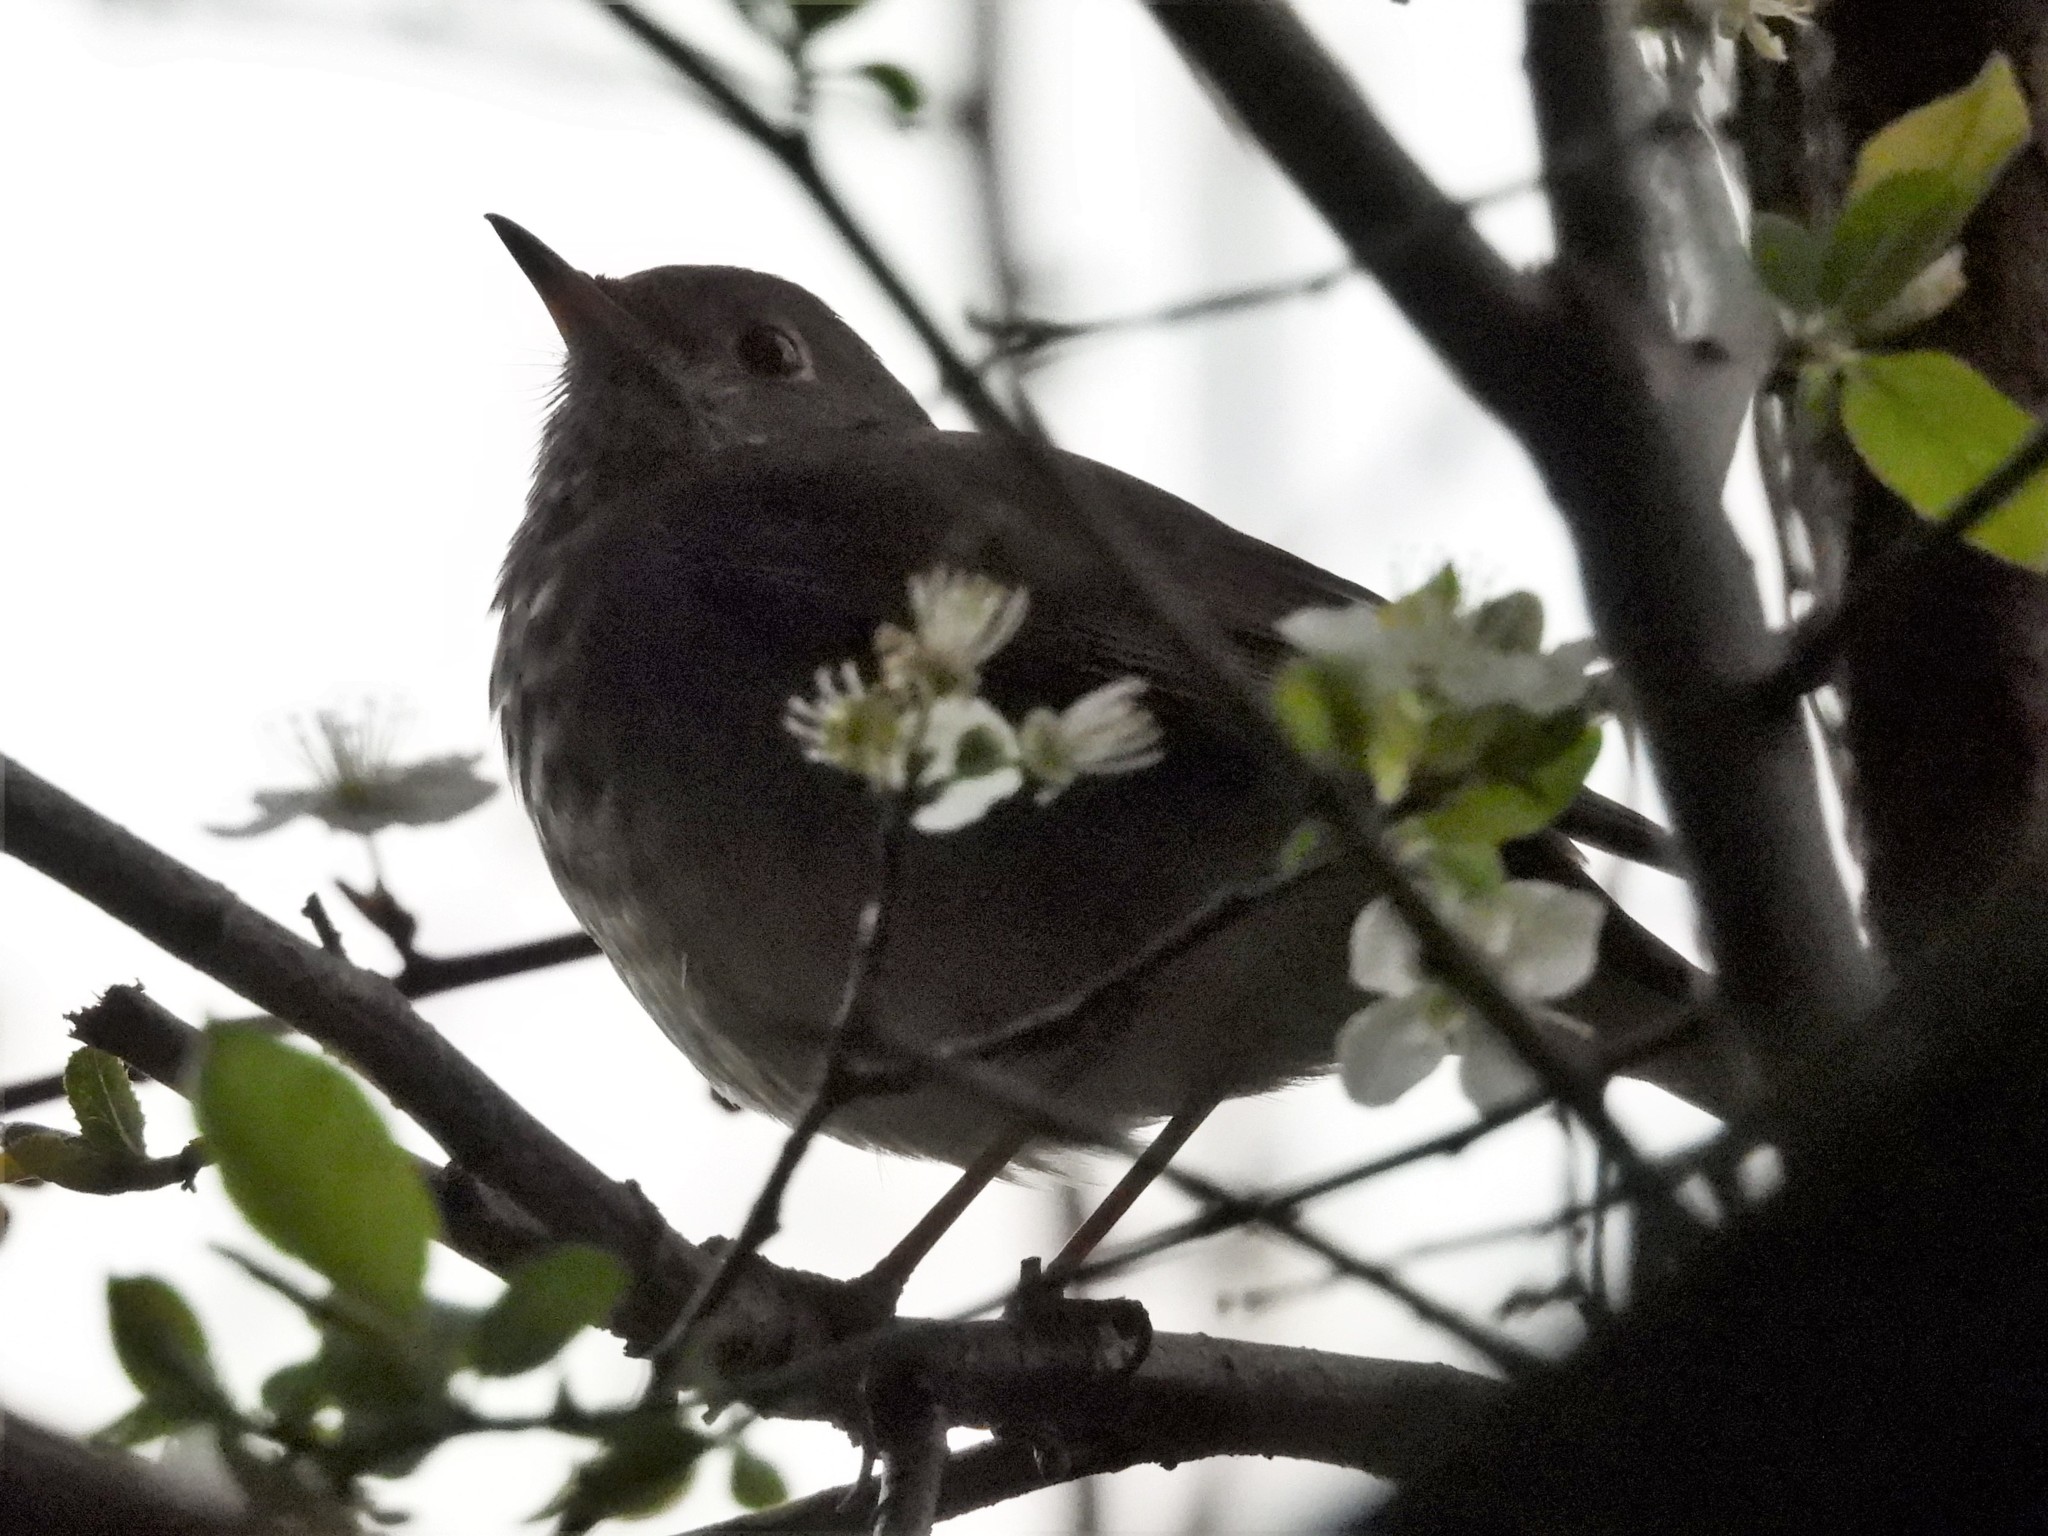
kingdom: Animalia
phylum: Chordata
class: Aves
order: Passeriformes
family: Turdidae
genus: Catharus
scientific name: Catharus guttatus
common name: Hermit thrush
